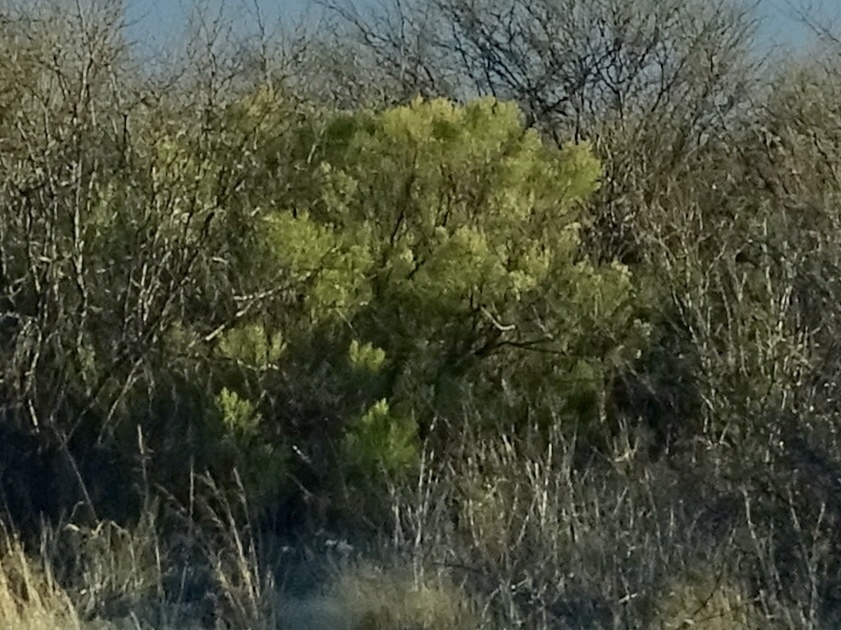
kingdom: Plantae
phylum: Tracheophyta
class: Magnoliopsida
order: Asterales
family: Asteraceae
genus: Baccharis
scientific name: Baccharis sarothroides
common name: Desert-broom
